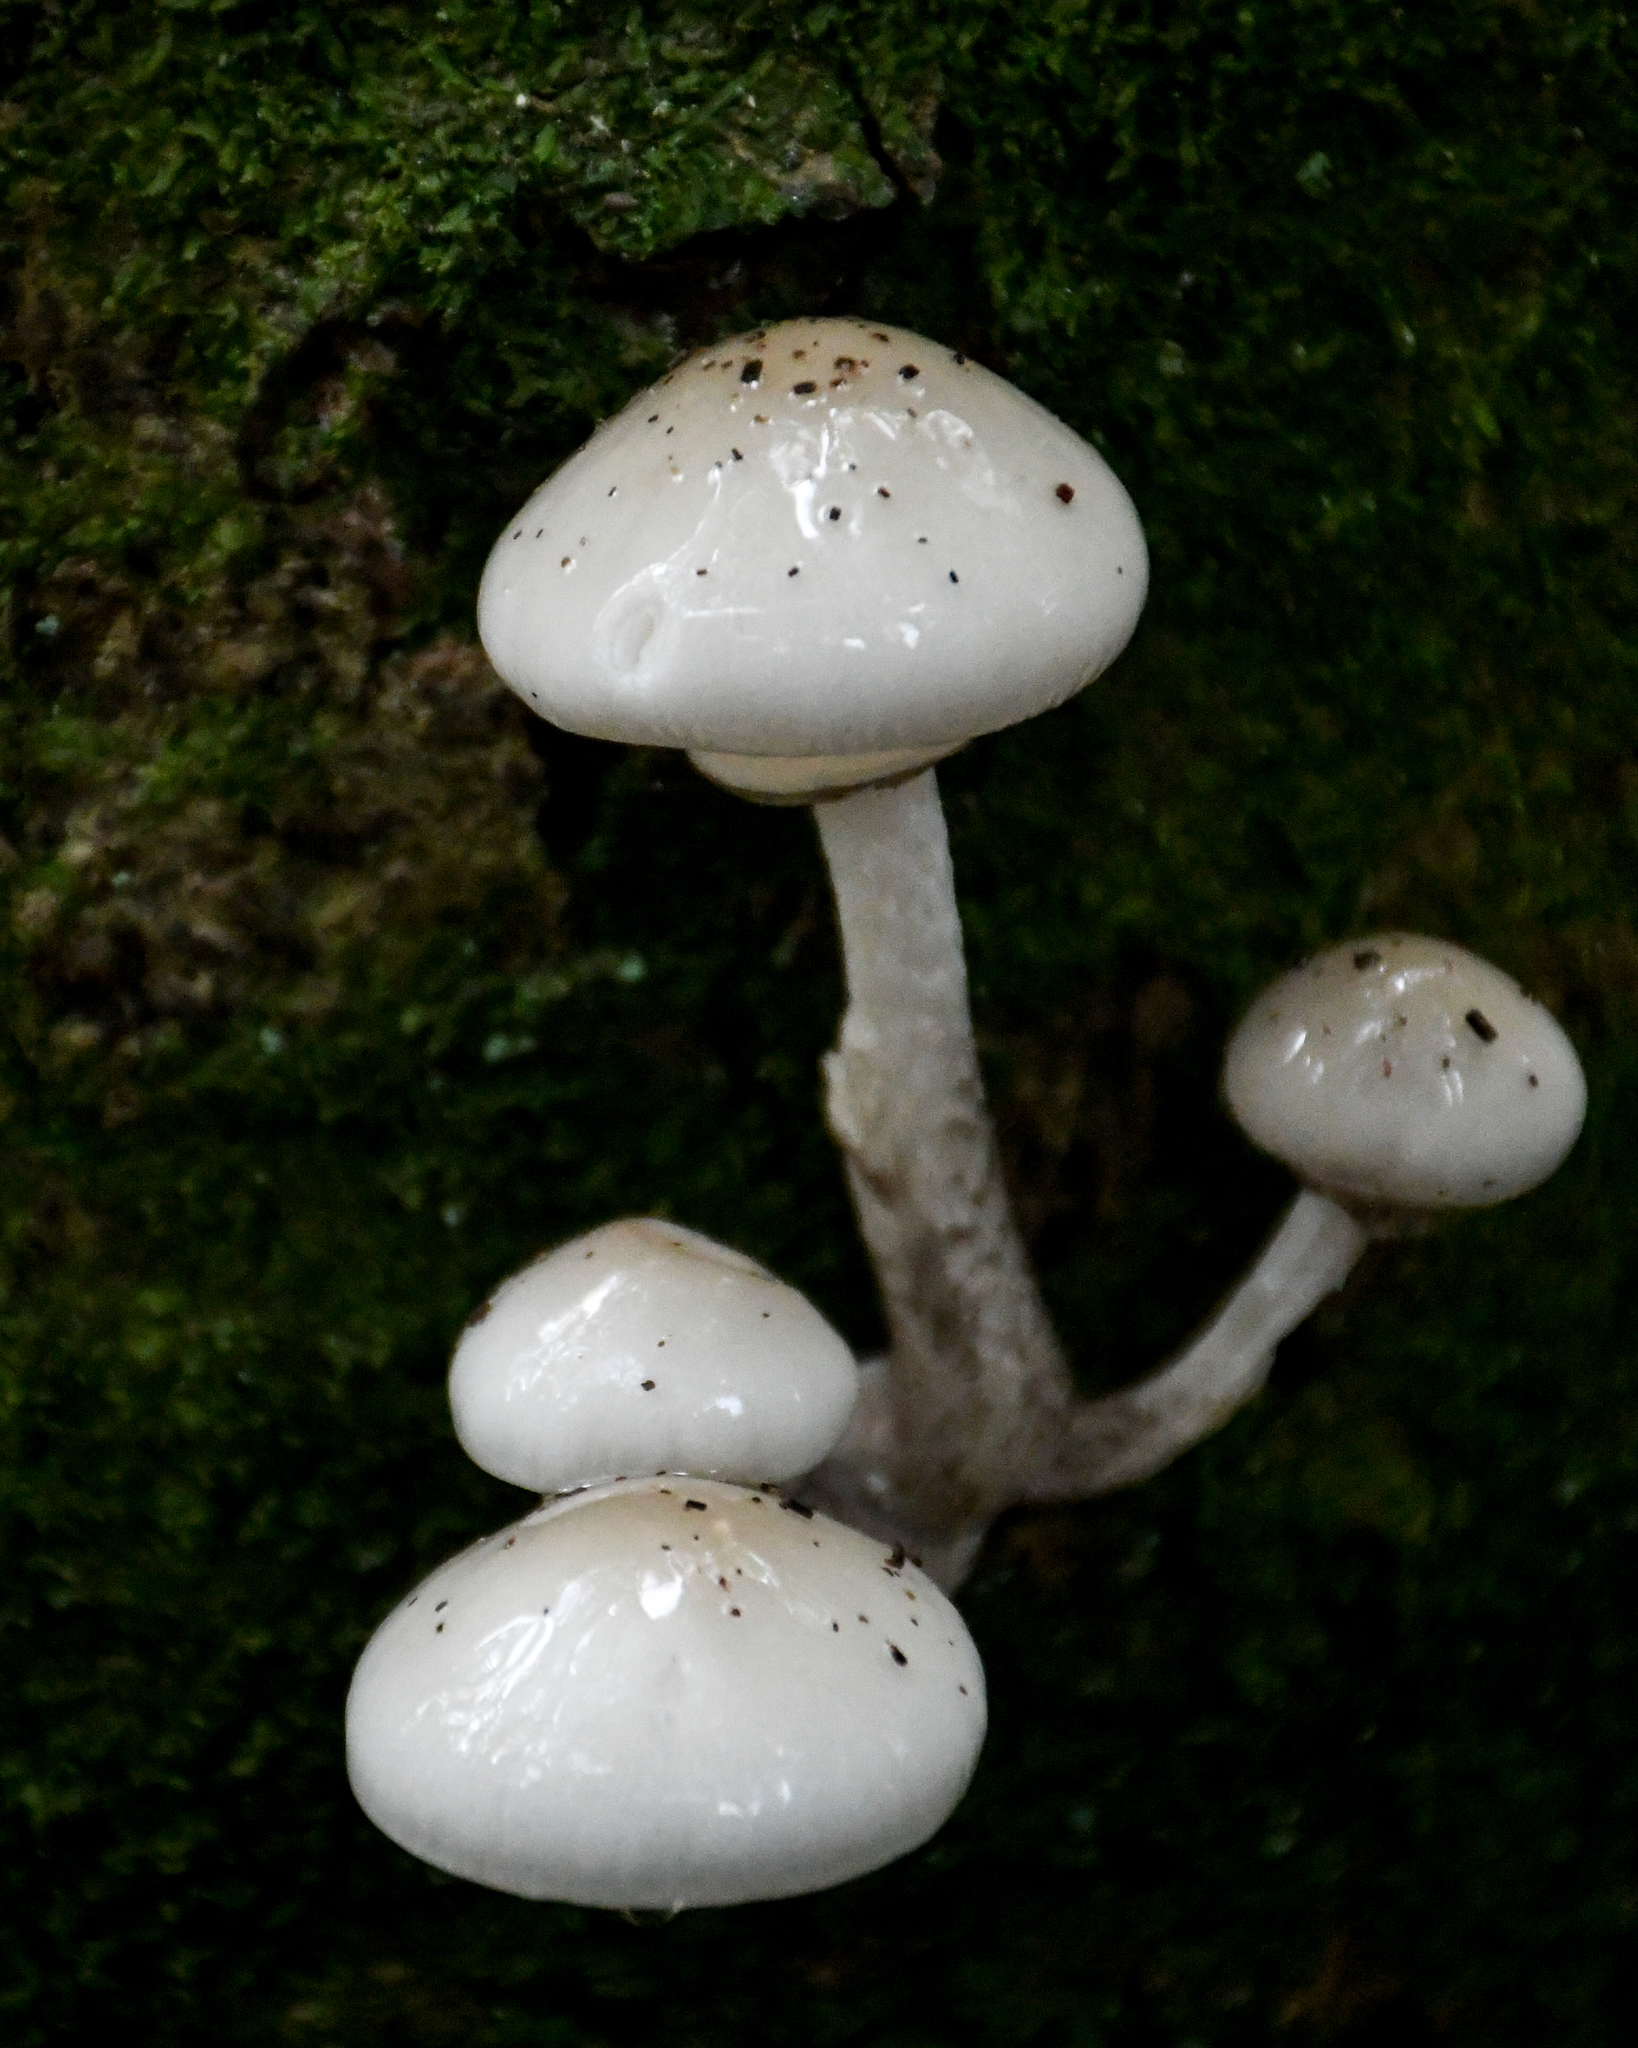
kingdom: Fungi
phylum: Basidiomycota
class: Agaricomycetes
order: Agaricales
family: Physalacriaceae
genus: Mucidula
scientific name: Mucidula mucida
